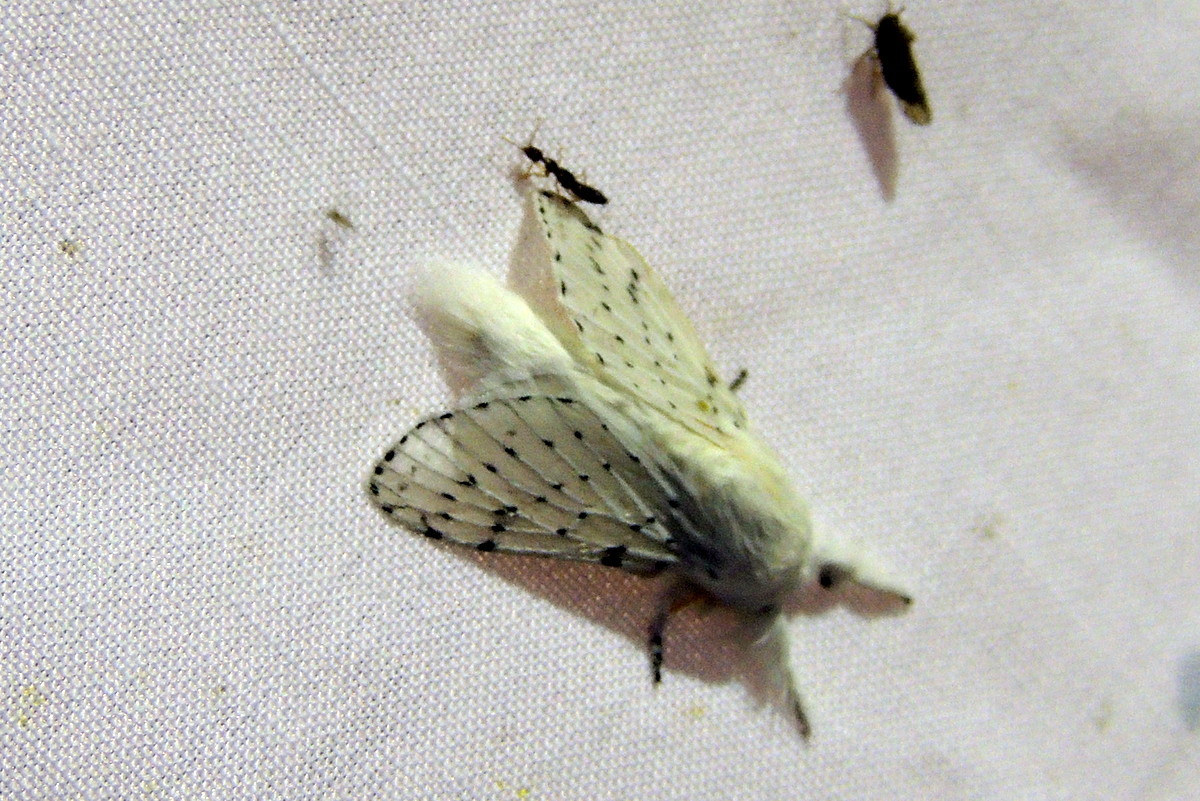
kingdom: Animalia
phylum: Arthropoda
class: Insecta
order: Lepidoptera
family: Lasiocampidae
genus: Artace
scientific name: Artace cribrarius
